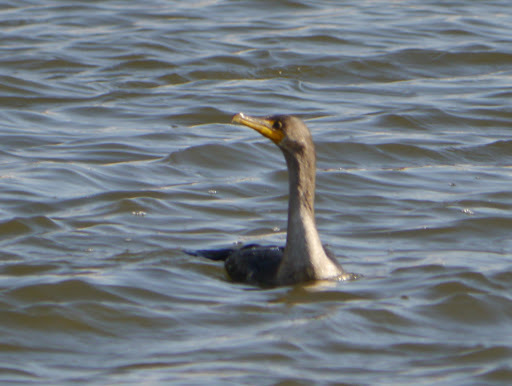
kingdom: Animalia
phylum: Chordata
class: Aves
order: Suliformes
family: Phalacrocoracidae
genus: Phalacrocorax
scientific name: Phalacrocorax auritus
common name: Double-crested cormorant
